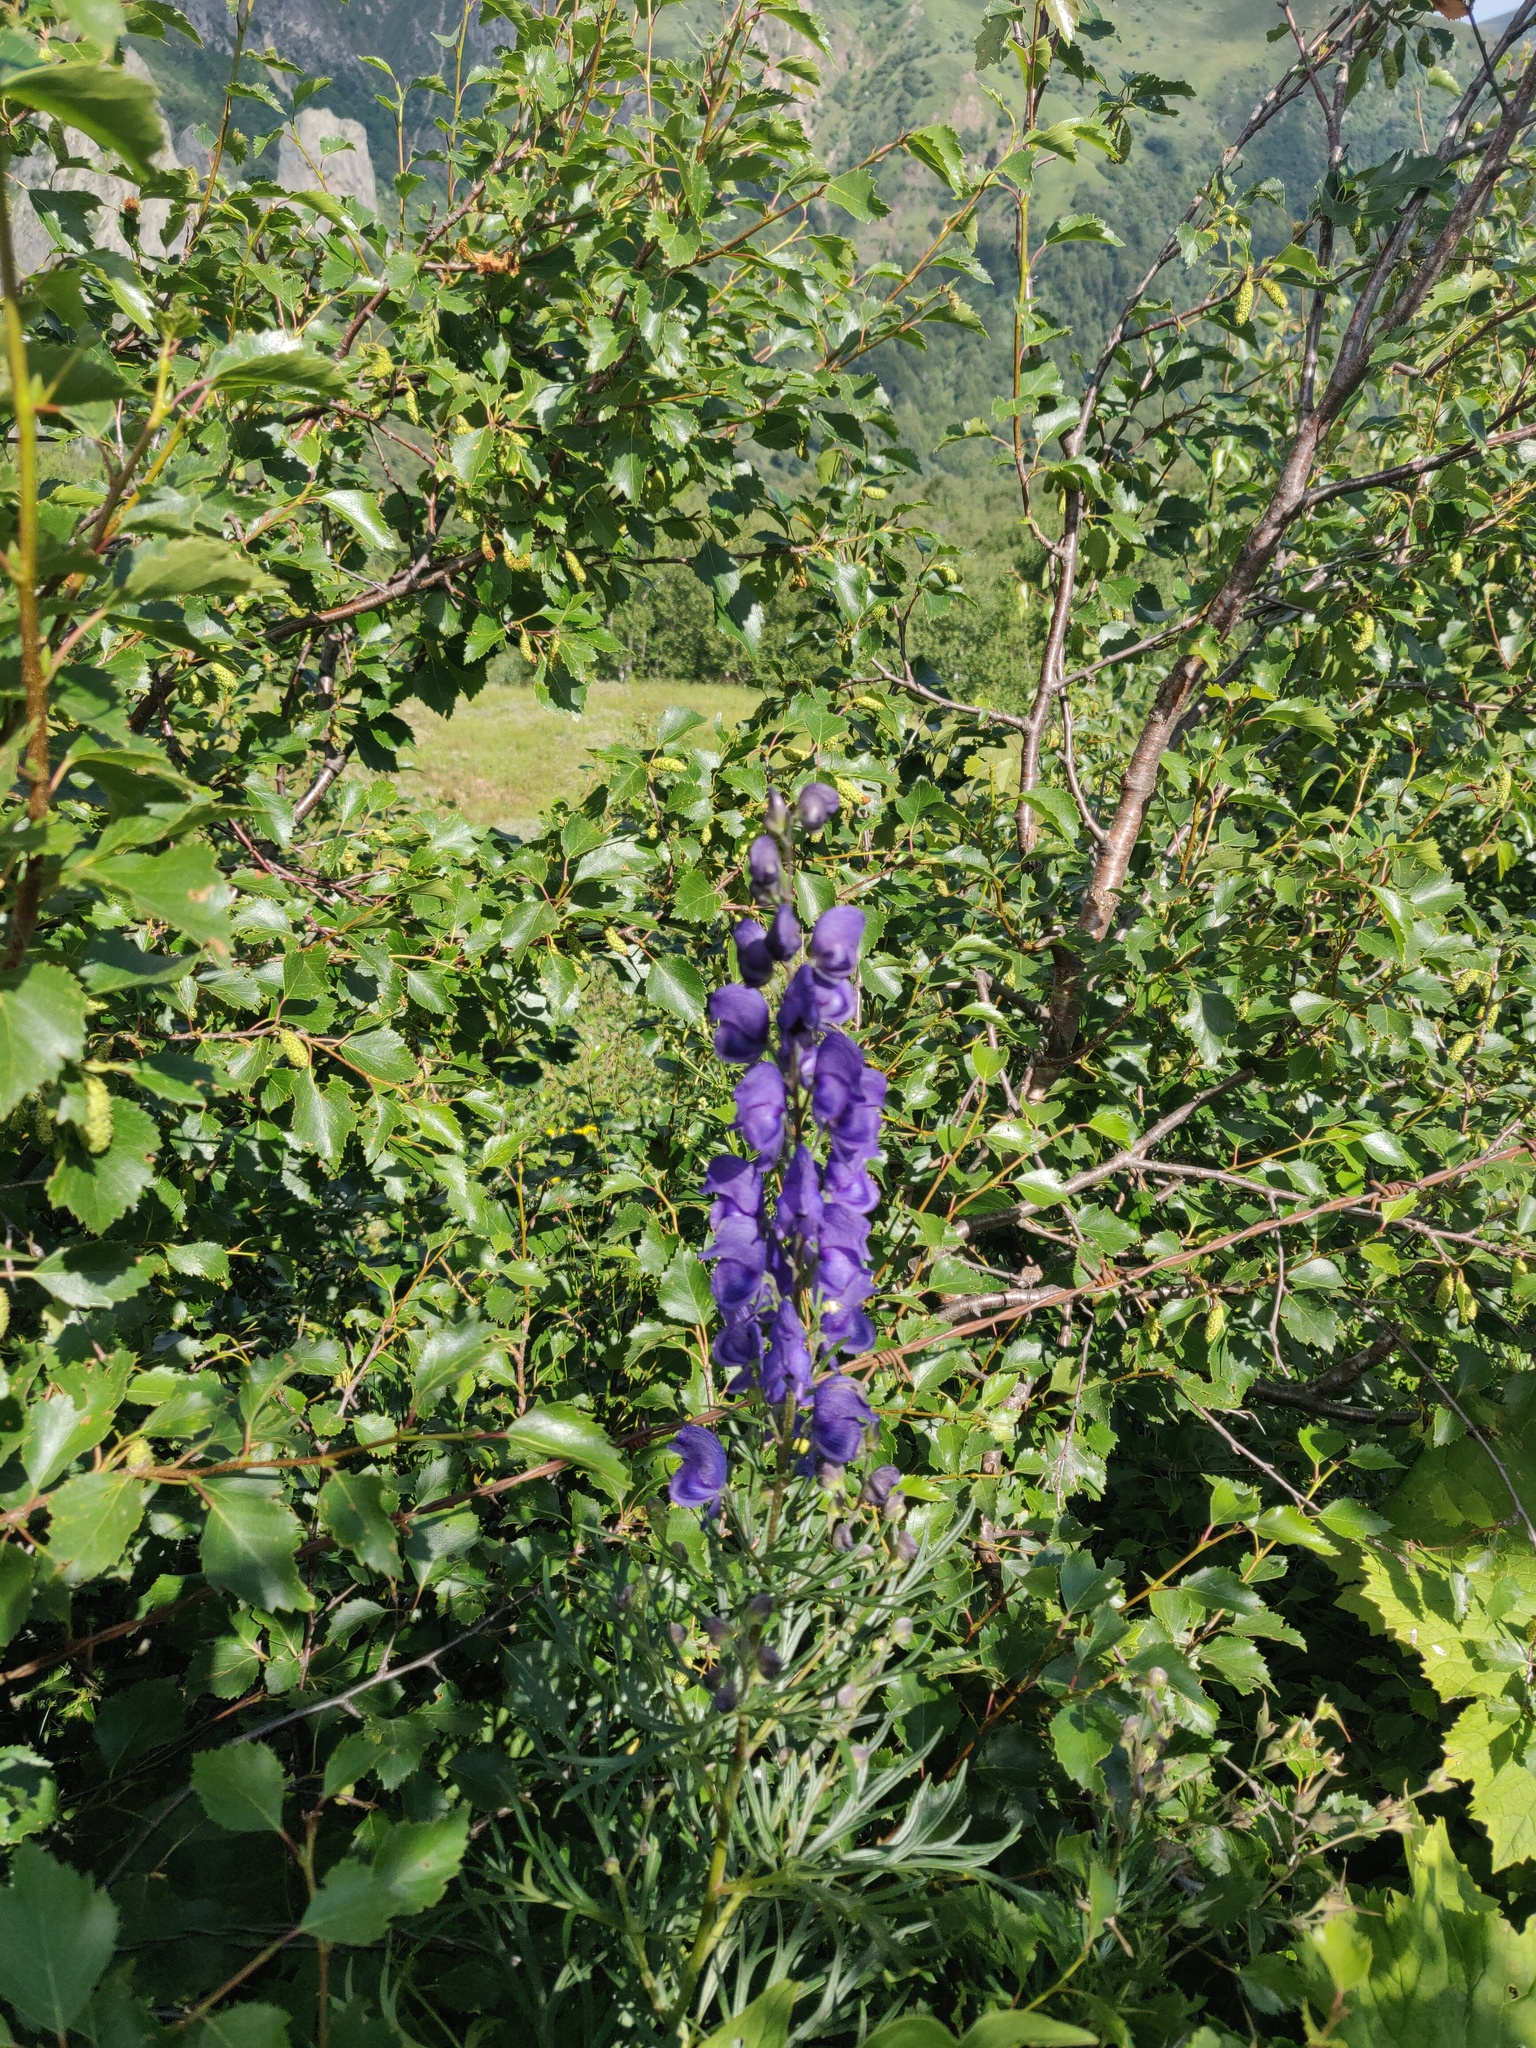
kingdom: Plantae
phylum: Tracheophyta
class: Magnoliopsida
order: Ranunculales
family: Ranunculaceae
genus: Aconitum
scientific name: Aconitum napellus
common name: Garden monkshood
